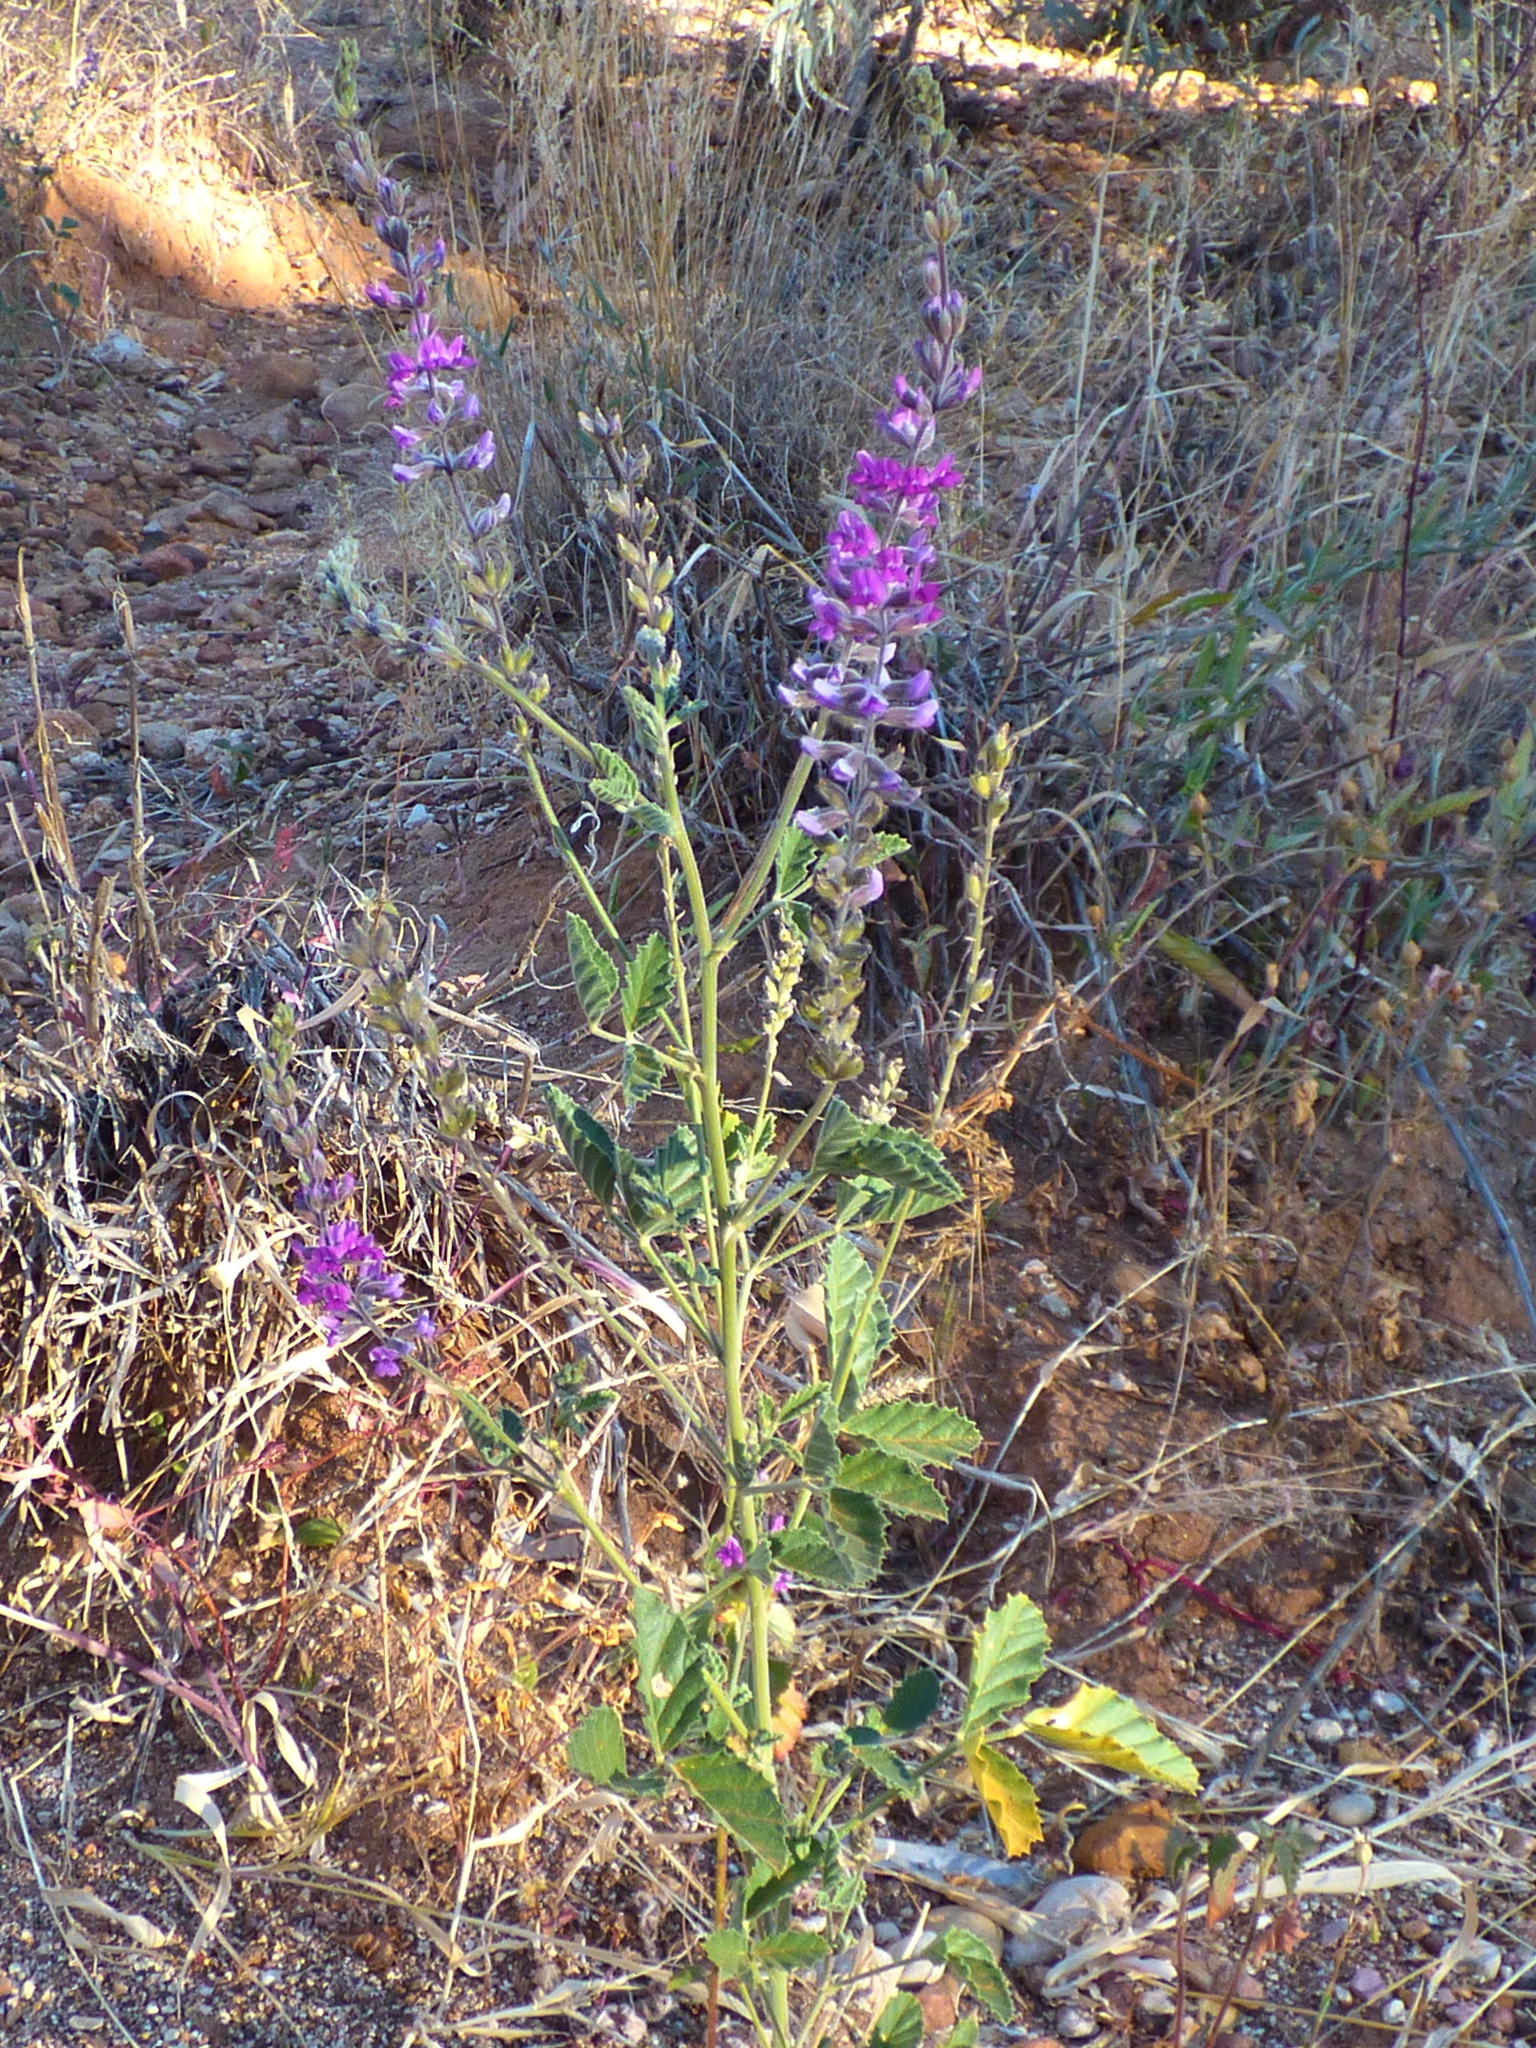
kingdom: Plantae
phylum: Tracheophyta
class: Magnoliopsida
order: Fabales
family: Fabaceae
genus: Cullen
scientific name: Cullen australasicum
